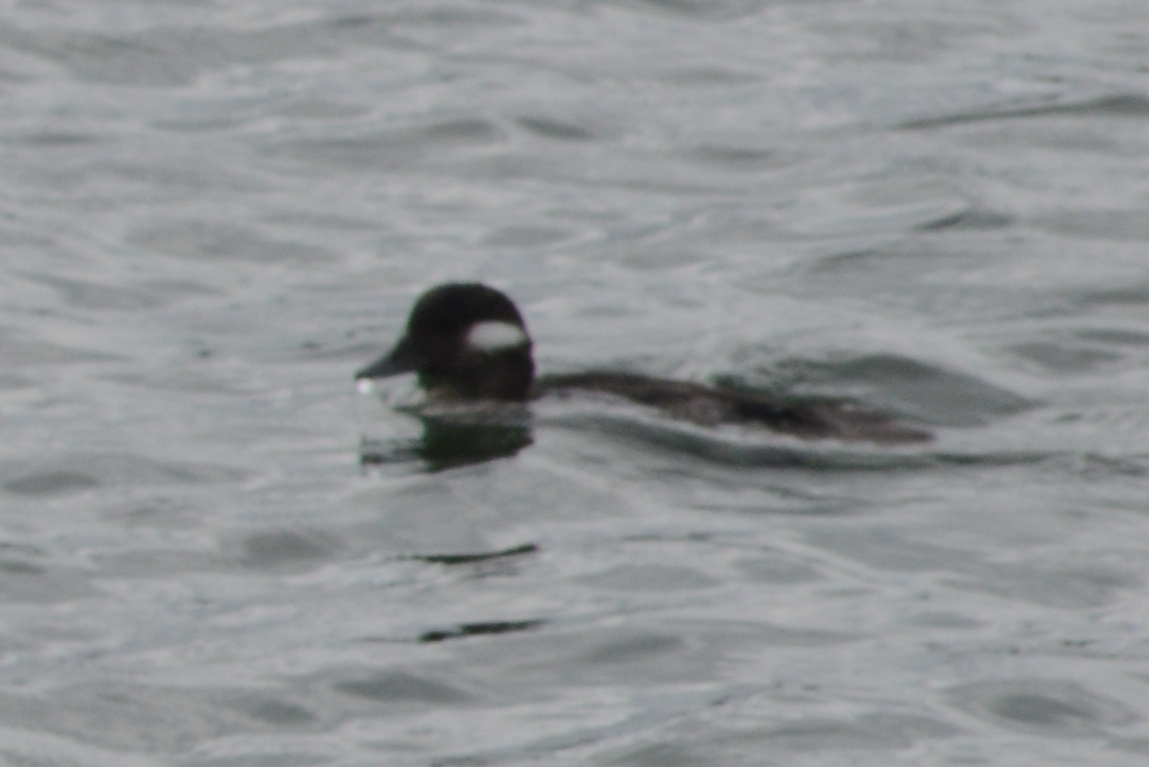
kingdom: Animalia
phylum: Chordata
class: Aves
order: Anseriformes
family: Anatidae
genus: Bucephala
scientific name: Bucephala albeola
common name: Bufflehead
